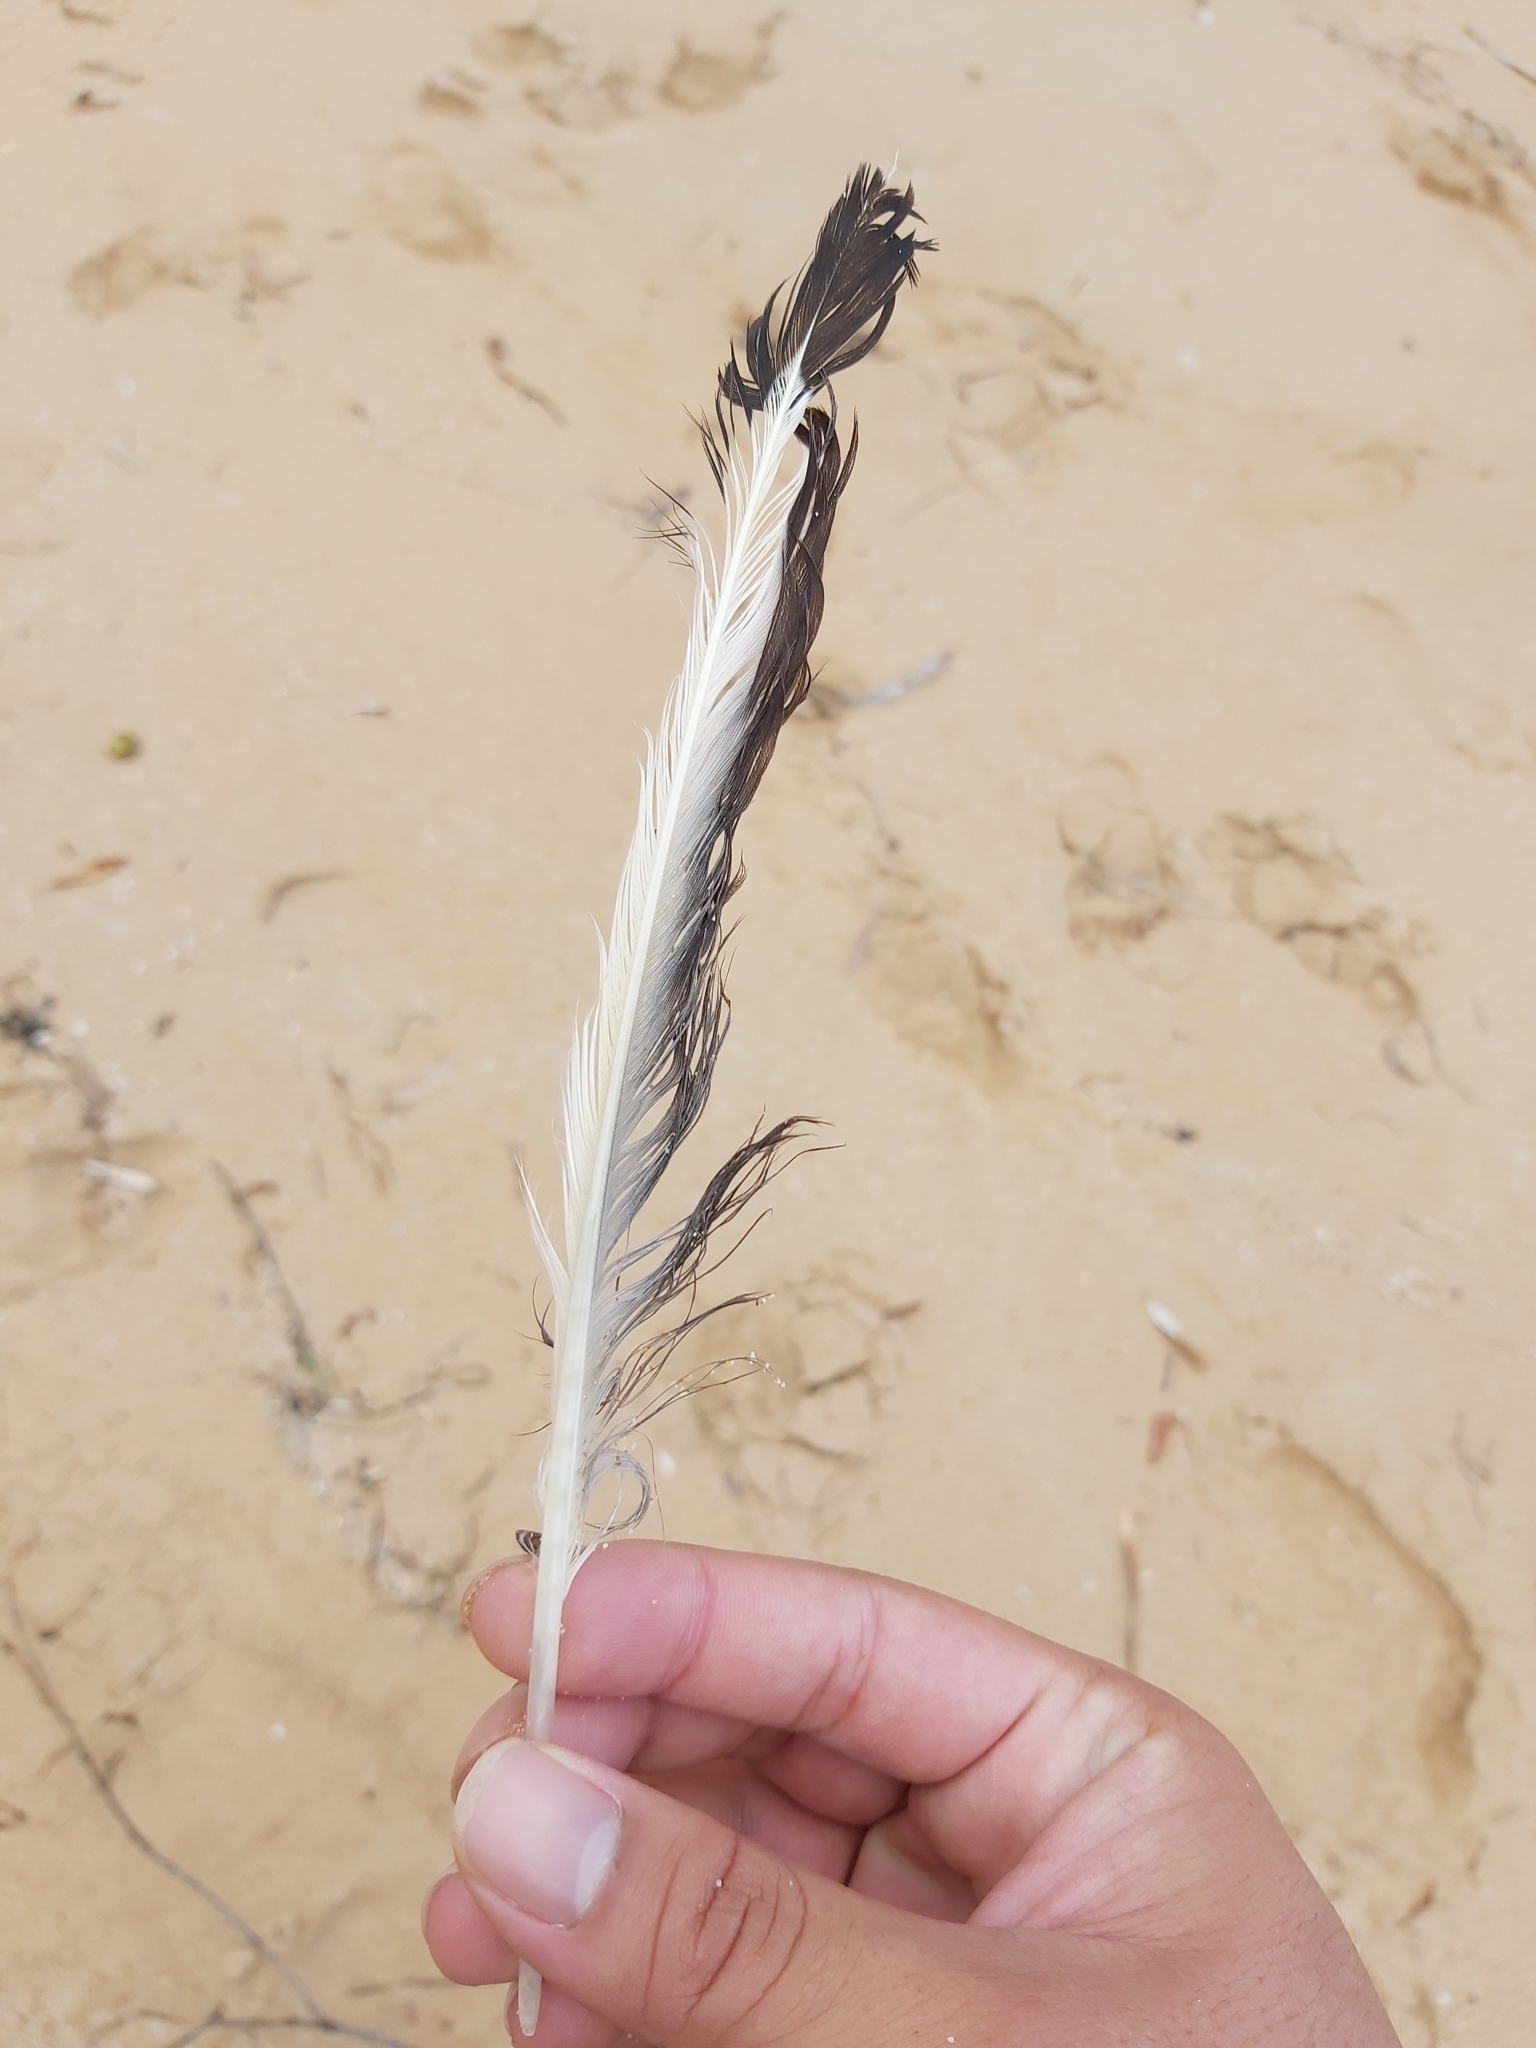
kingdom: Animalia
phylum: Chordata
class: Aves
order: Charadriiformes
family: Laridae
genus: Chroicocephalus
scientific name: Chroicocephalus novaehollandiae
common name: Silver gull
